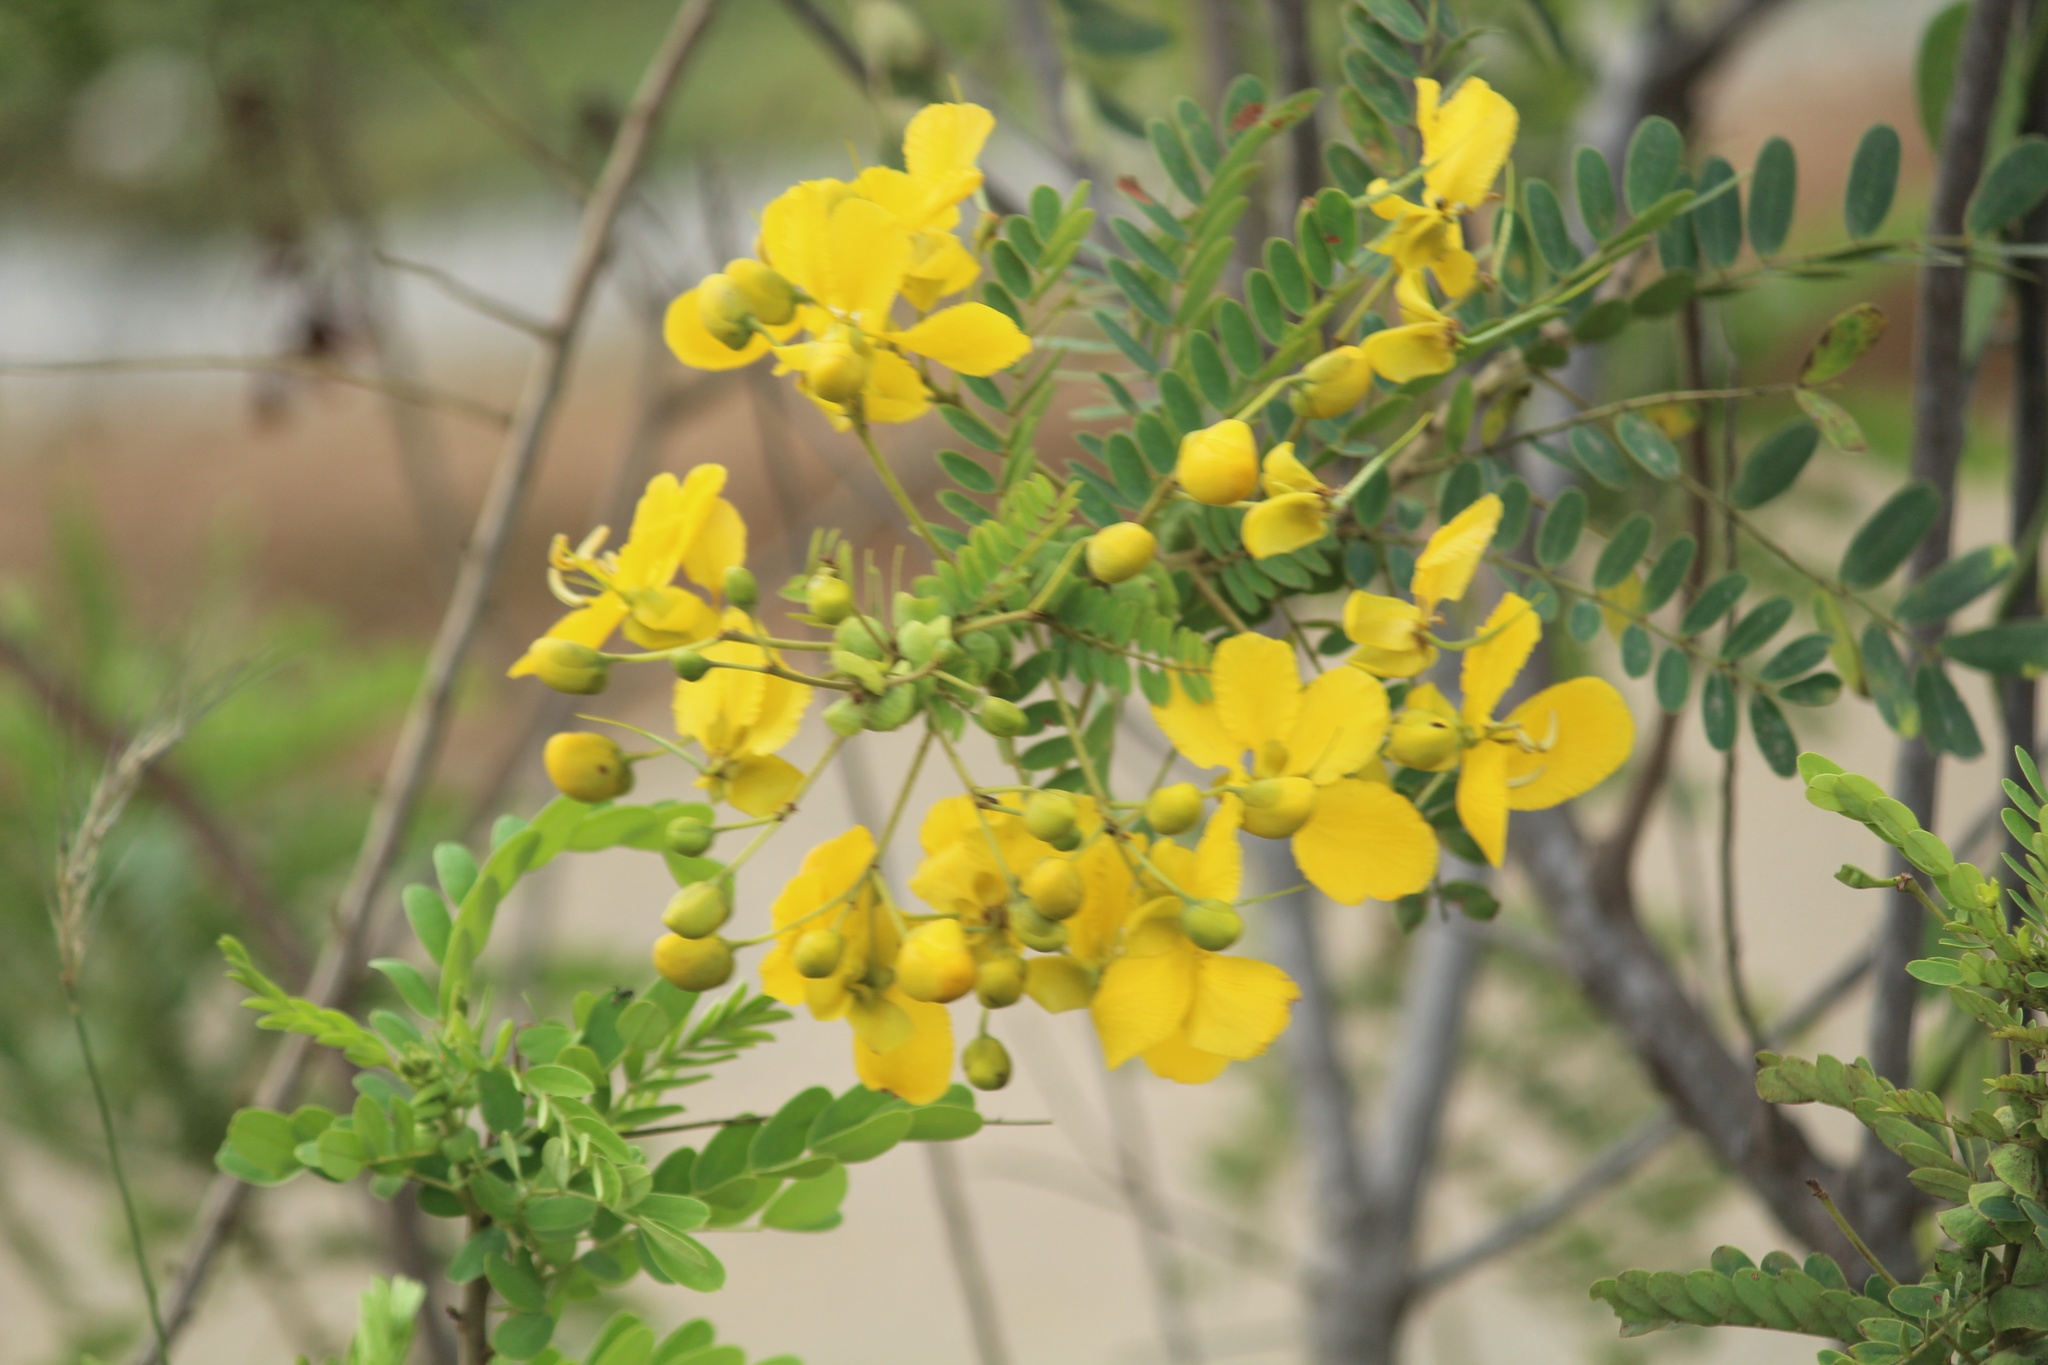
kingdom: Plantae
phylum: Tracheophyta
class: Magnoliopsida
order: Fabales
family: Fabaceae
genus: Senna
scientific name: Senna auriculata
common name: Tanner's cassia
